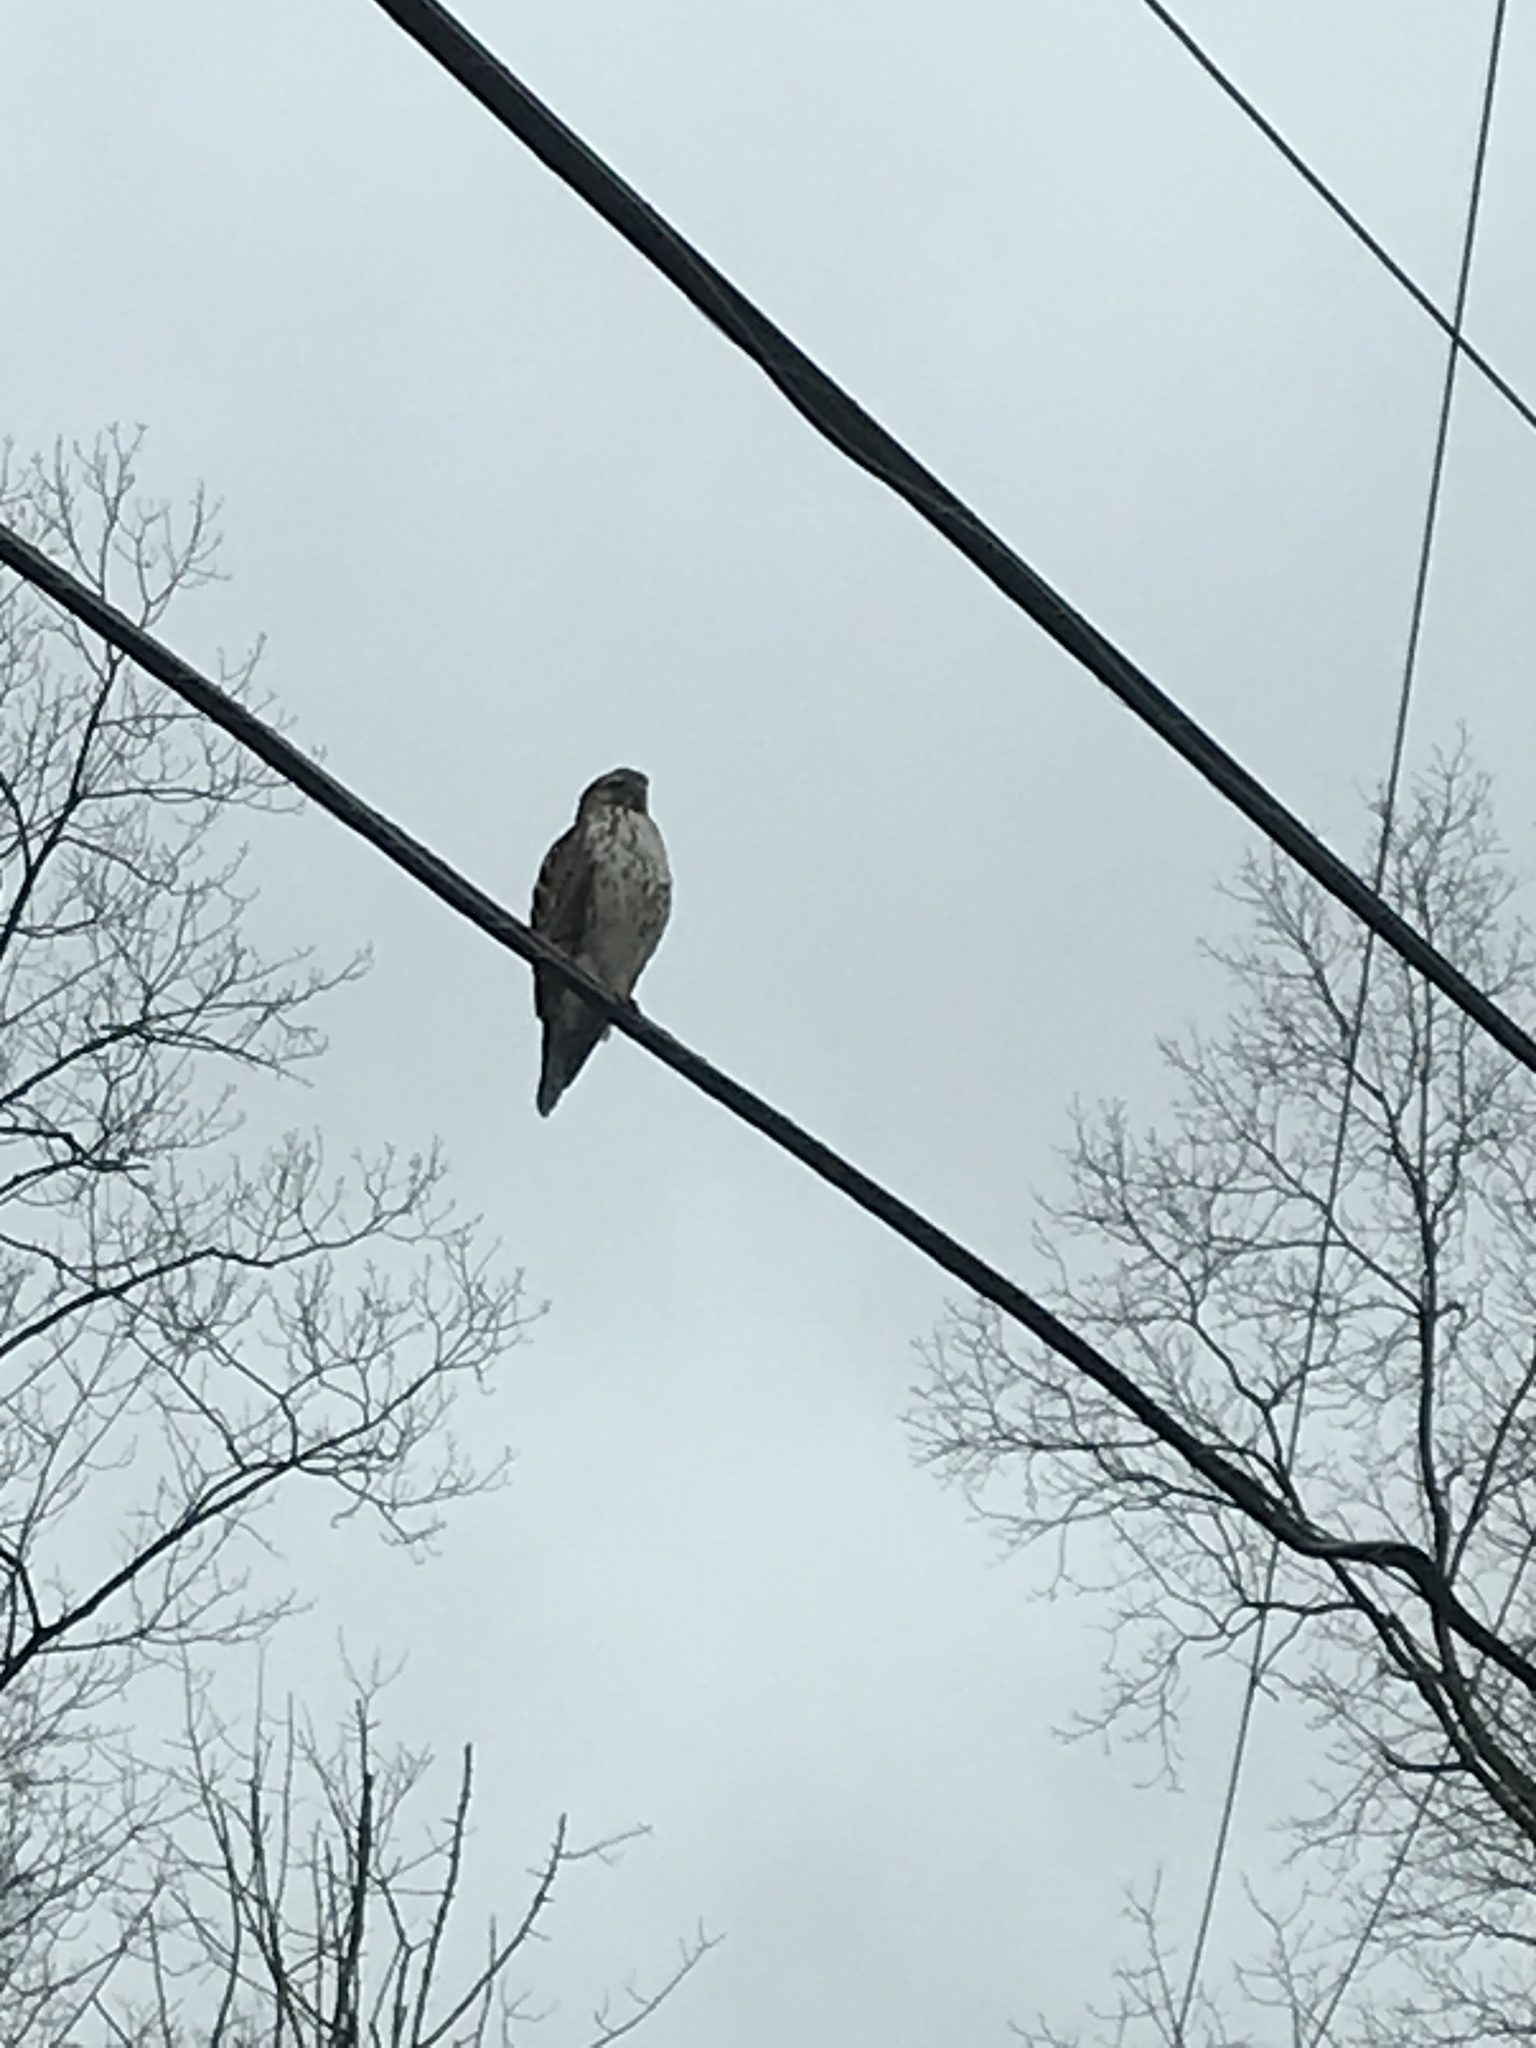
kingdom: Animalia
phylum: Chordata
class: Aves
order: Accipitriformes
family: Accipitridae
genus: Buteo
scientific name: Buteo lineatus
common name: Red-shouldered hawk
